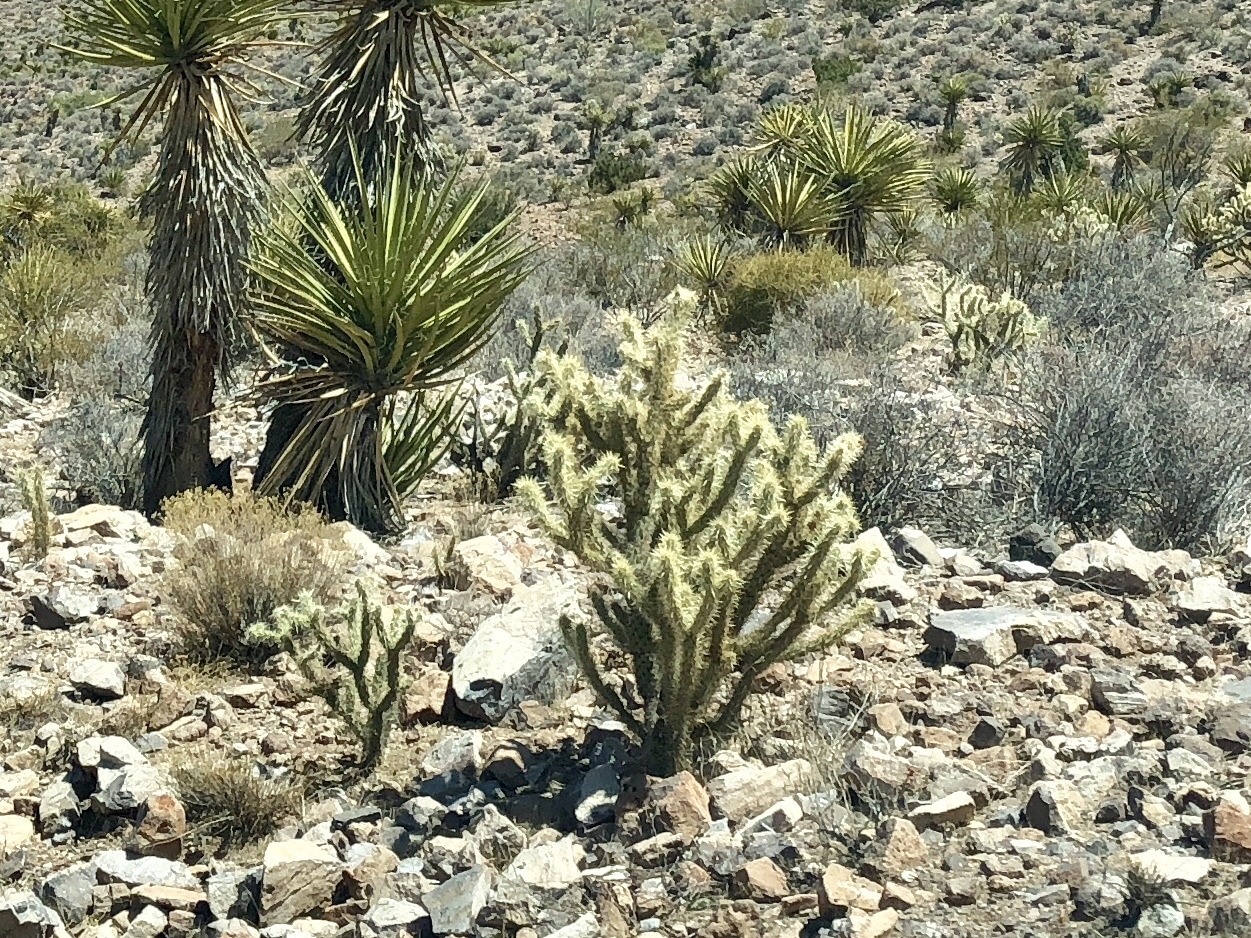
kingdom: Plantae
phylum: Tracheophyta
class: Magnoliopsida
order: Caryophyllales
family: Cactaceae
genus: Cylindropuntia
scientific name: Cylindropuntia acanthocarpa
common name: Buckhorn cholla
